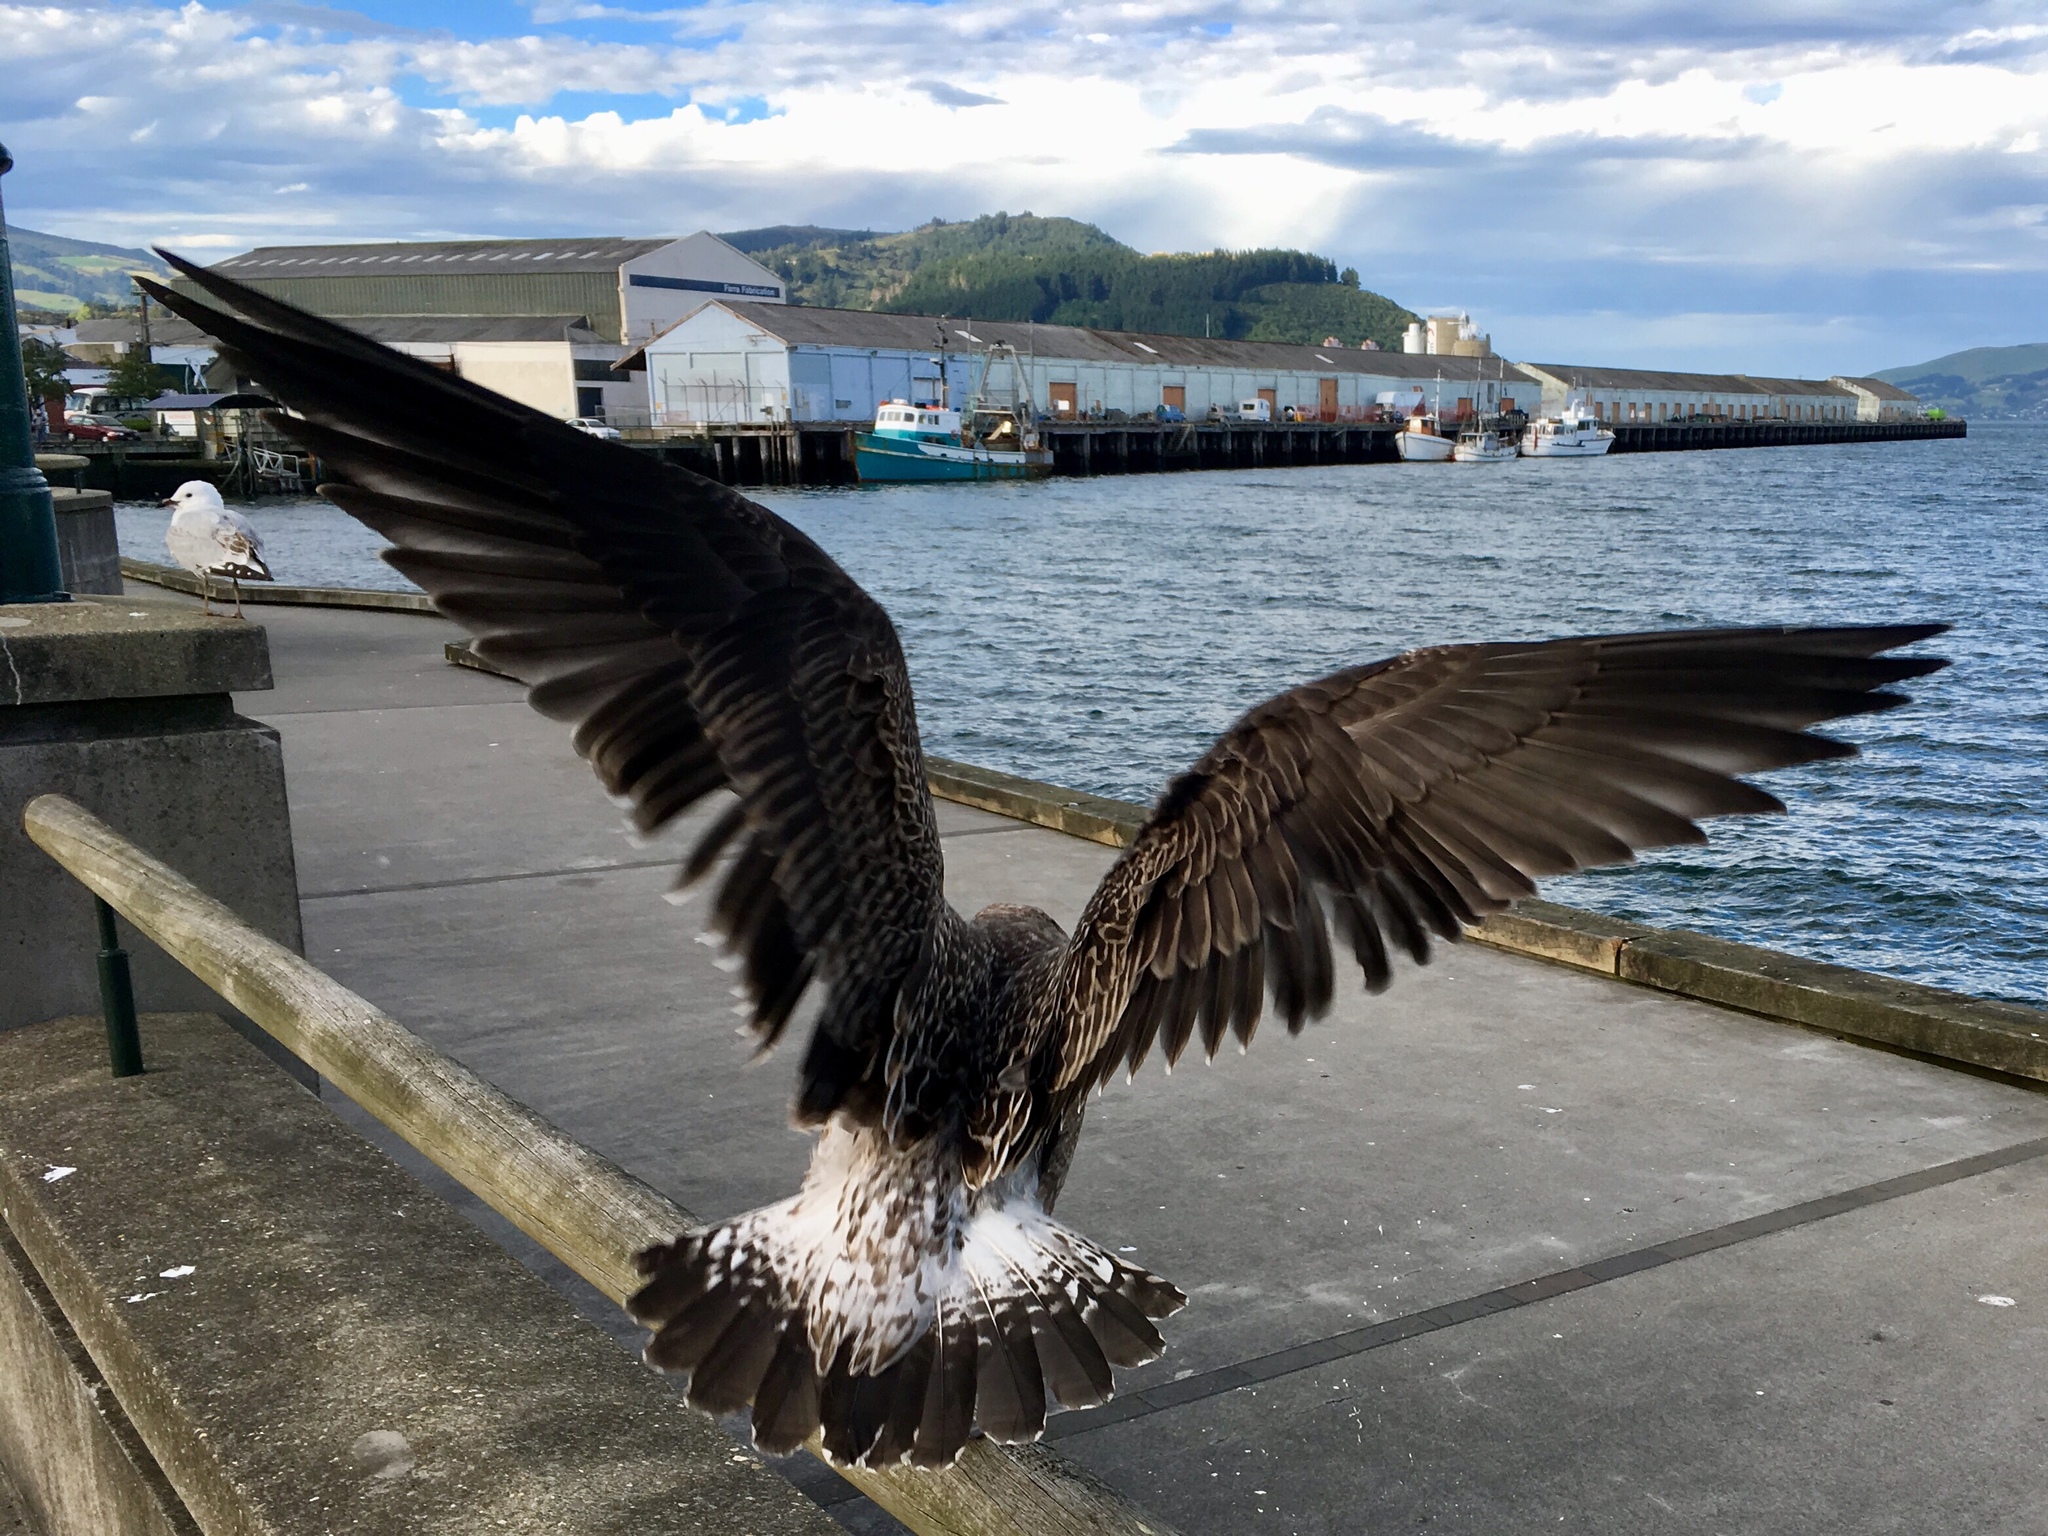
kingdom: Animalia
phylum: Chordata
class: Aves
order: Charadriiformes
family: Laridae
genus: Larus
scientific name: Larus dominicanus
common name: Kelp gull
